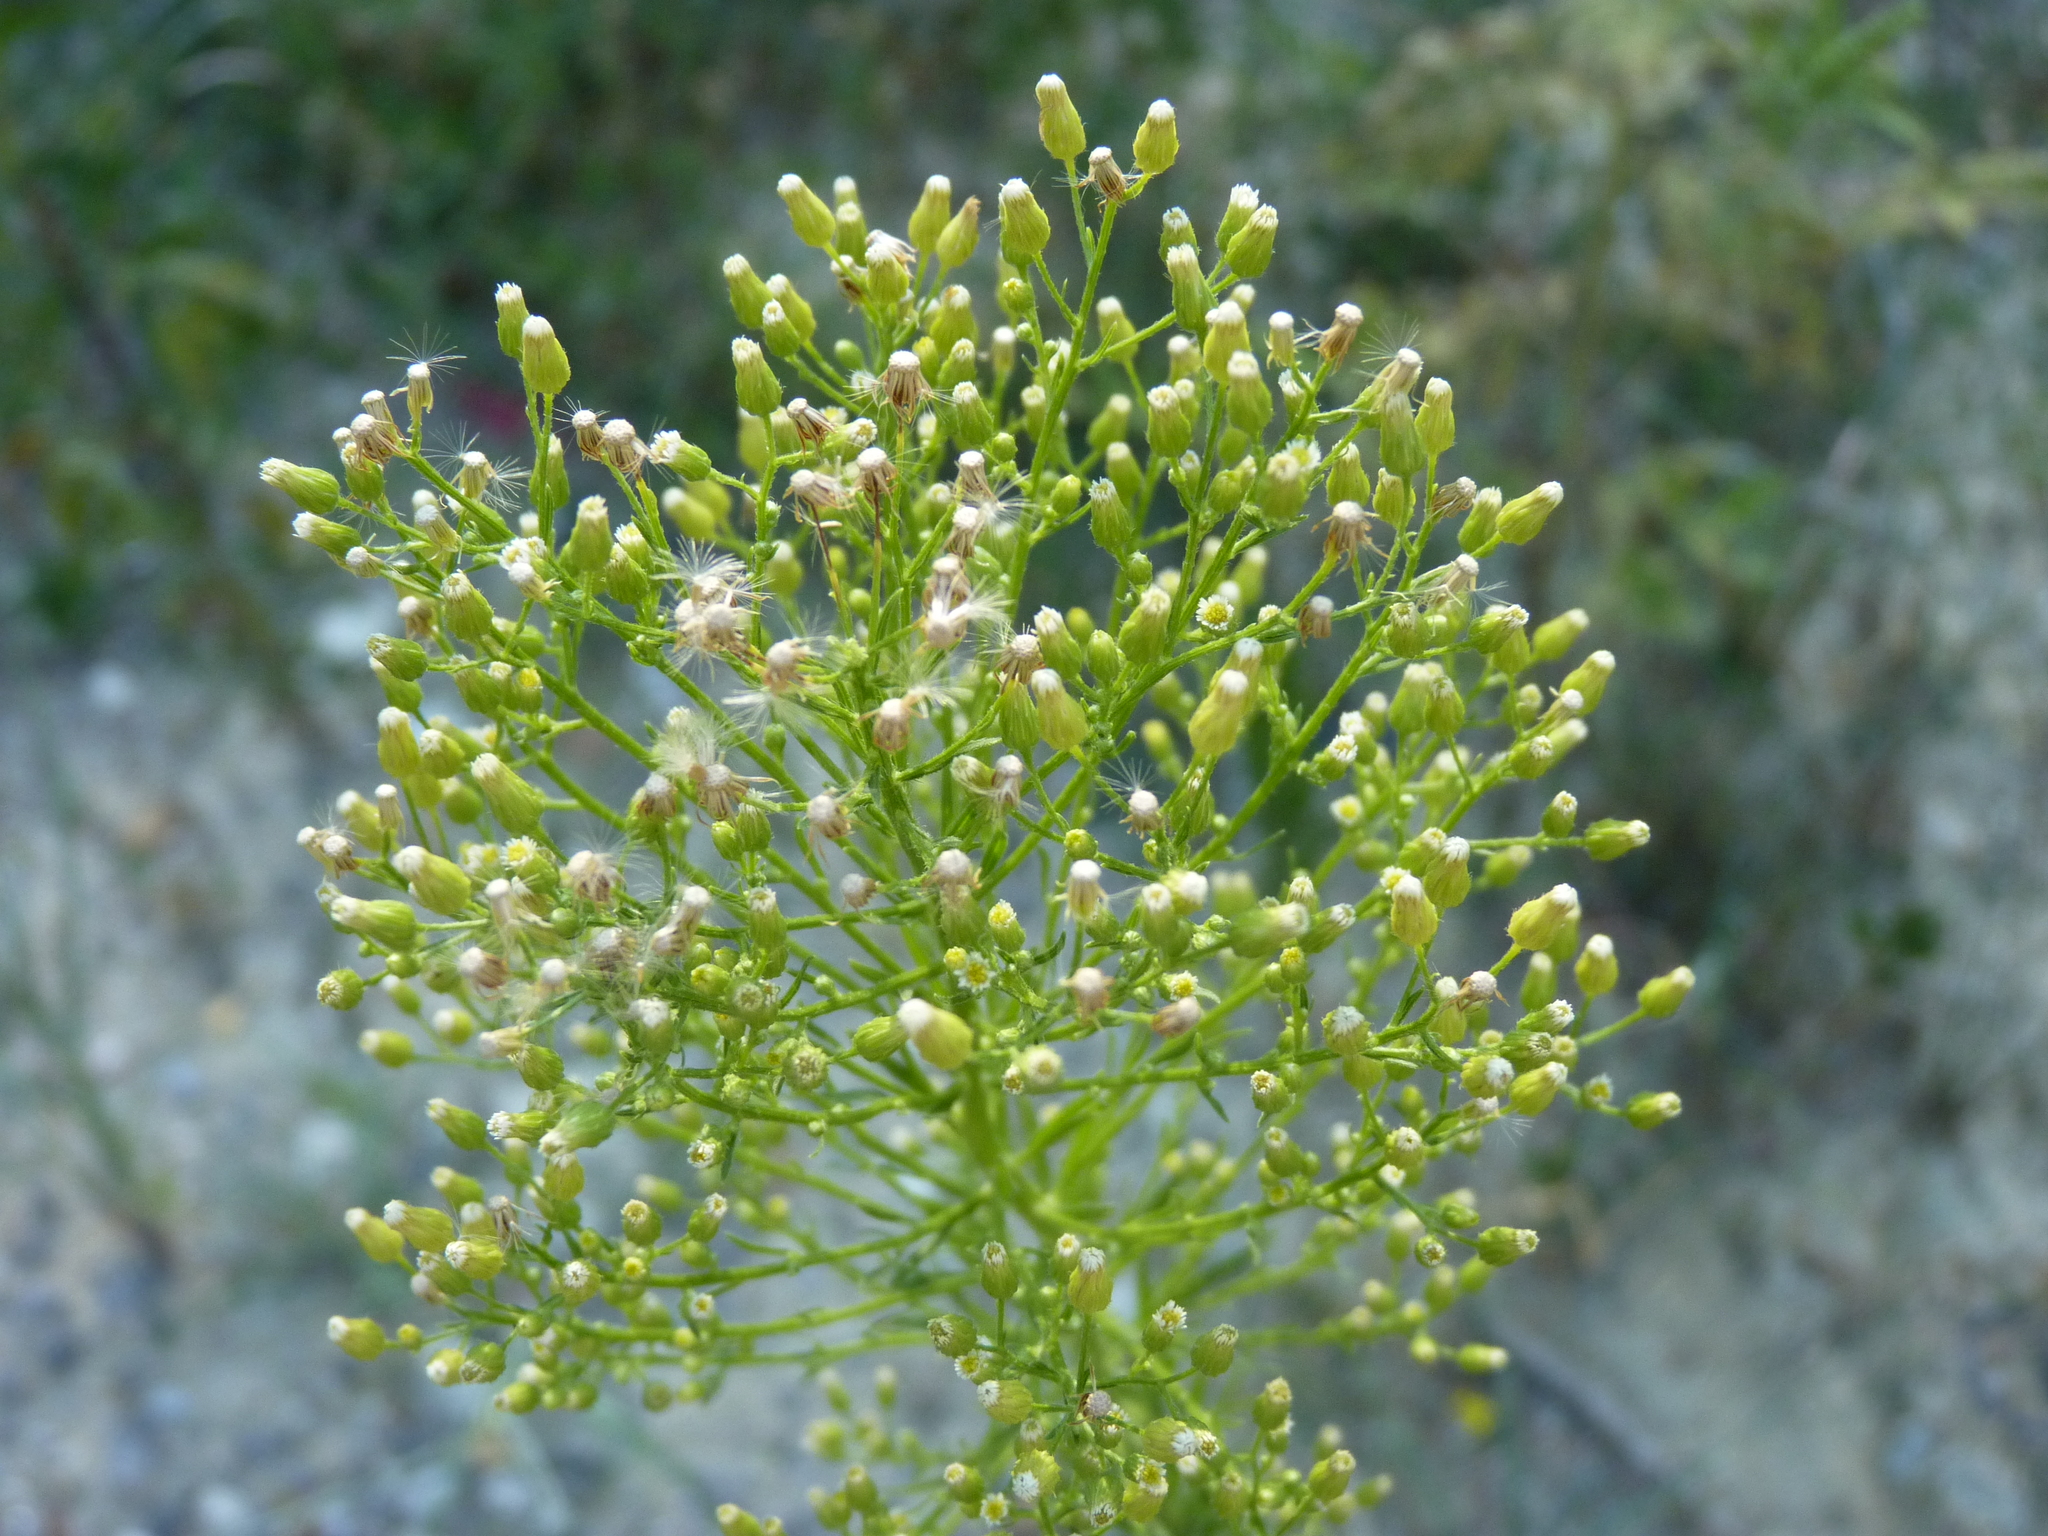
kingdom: Plantae
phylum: Tracheophyta
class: Magnoliopsida
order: Asterales
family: Asteraceae
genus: Erigeron
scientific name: Erigeron canadensis
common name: Canadian fleabane
